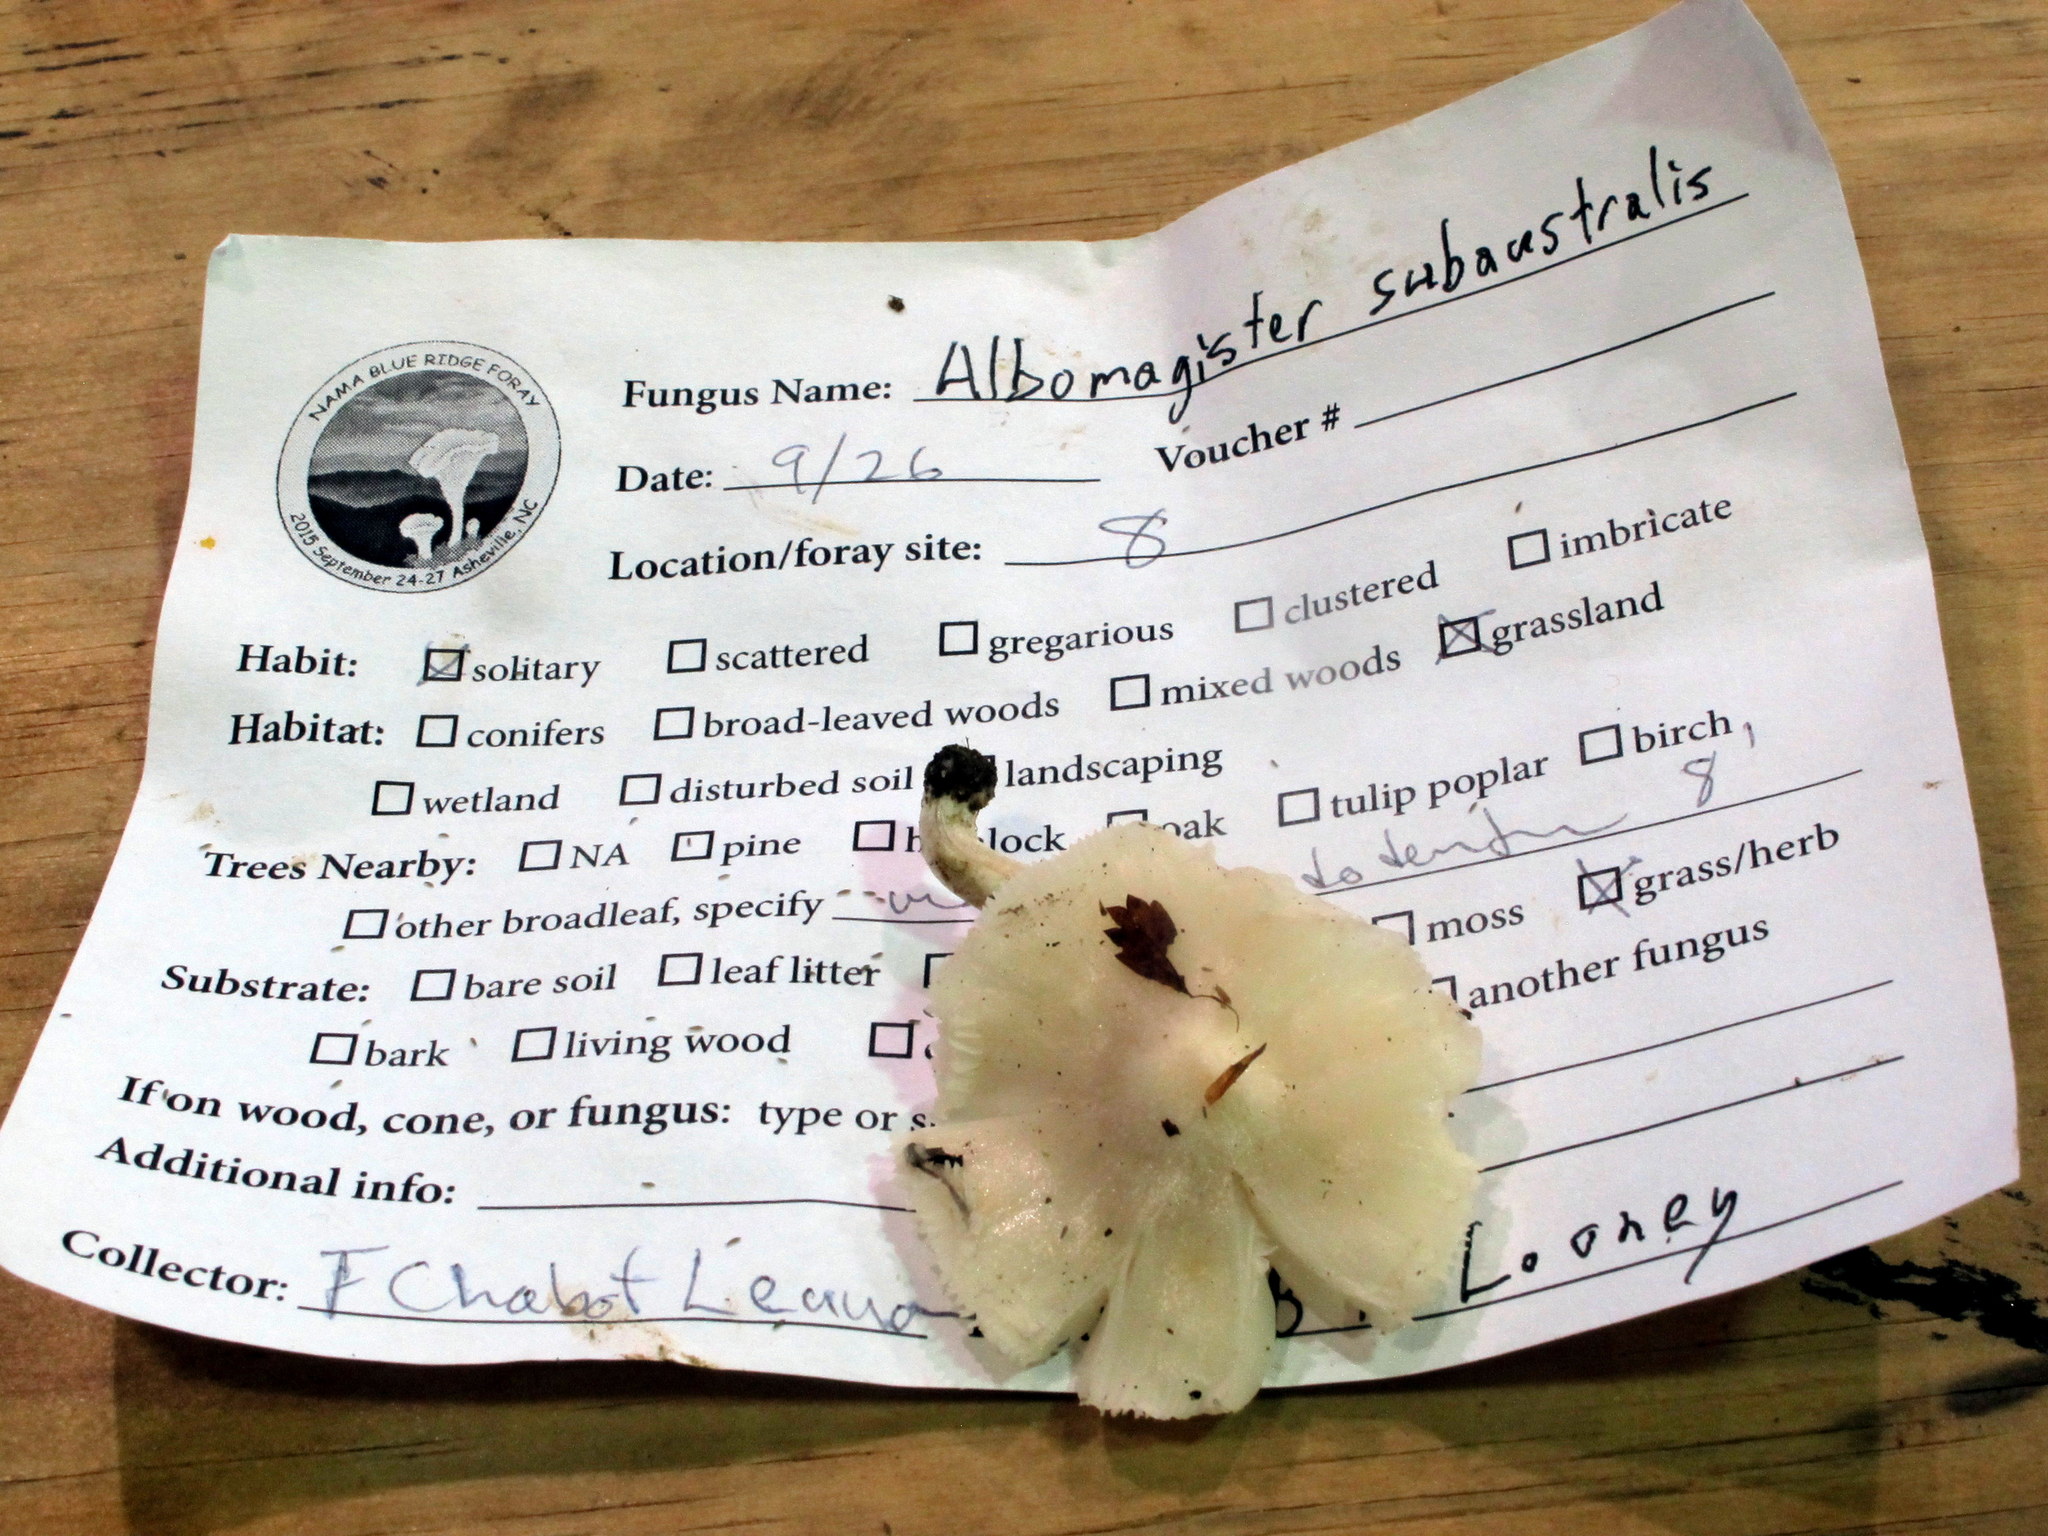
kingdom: Fungi
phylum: Basidiomycota
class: Agaricomycetes
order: Agaricales
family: Tricholomataceae
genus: Albomagister
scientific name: Albomagister subaustralis
